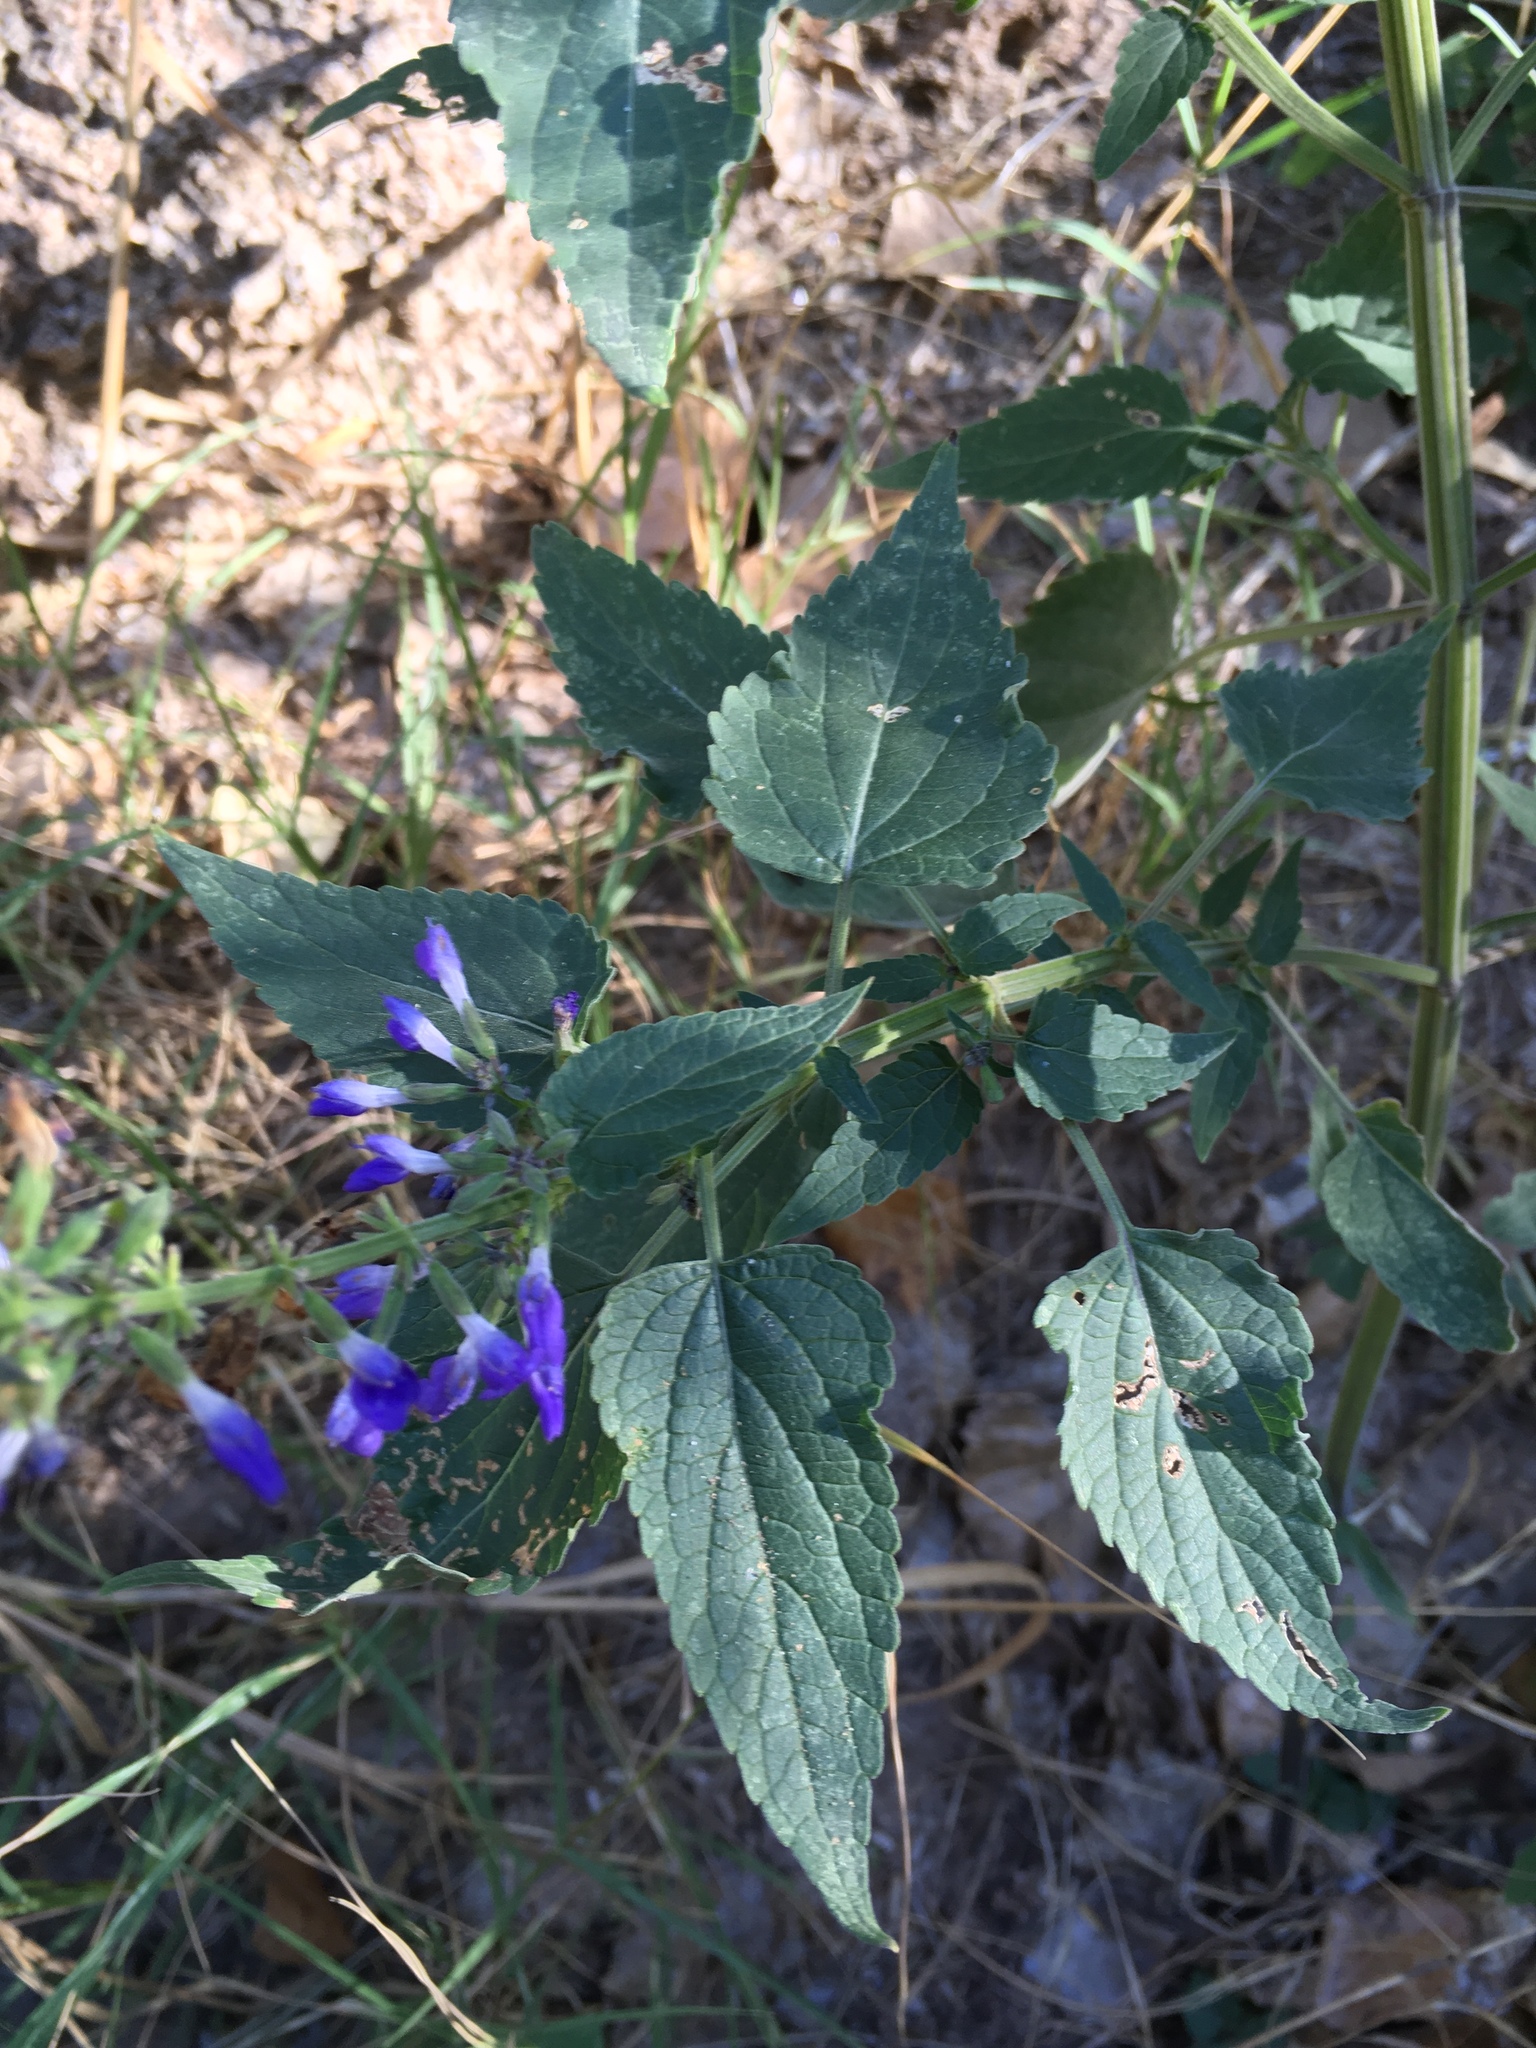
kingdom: Plantae
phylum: Tracheophyta
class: Magnoliopsida
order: Lamiales
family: Lamiaceae
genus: Salvia
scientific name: Salvia amissa
